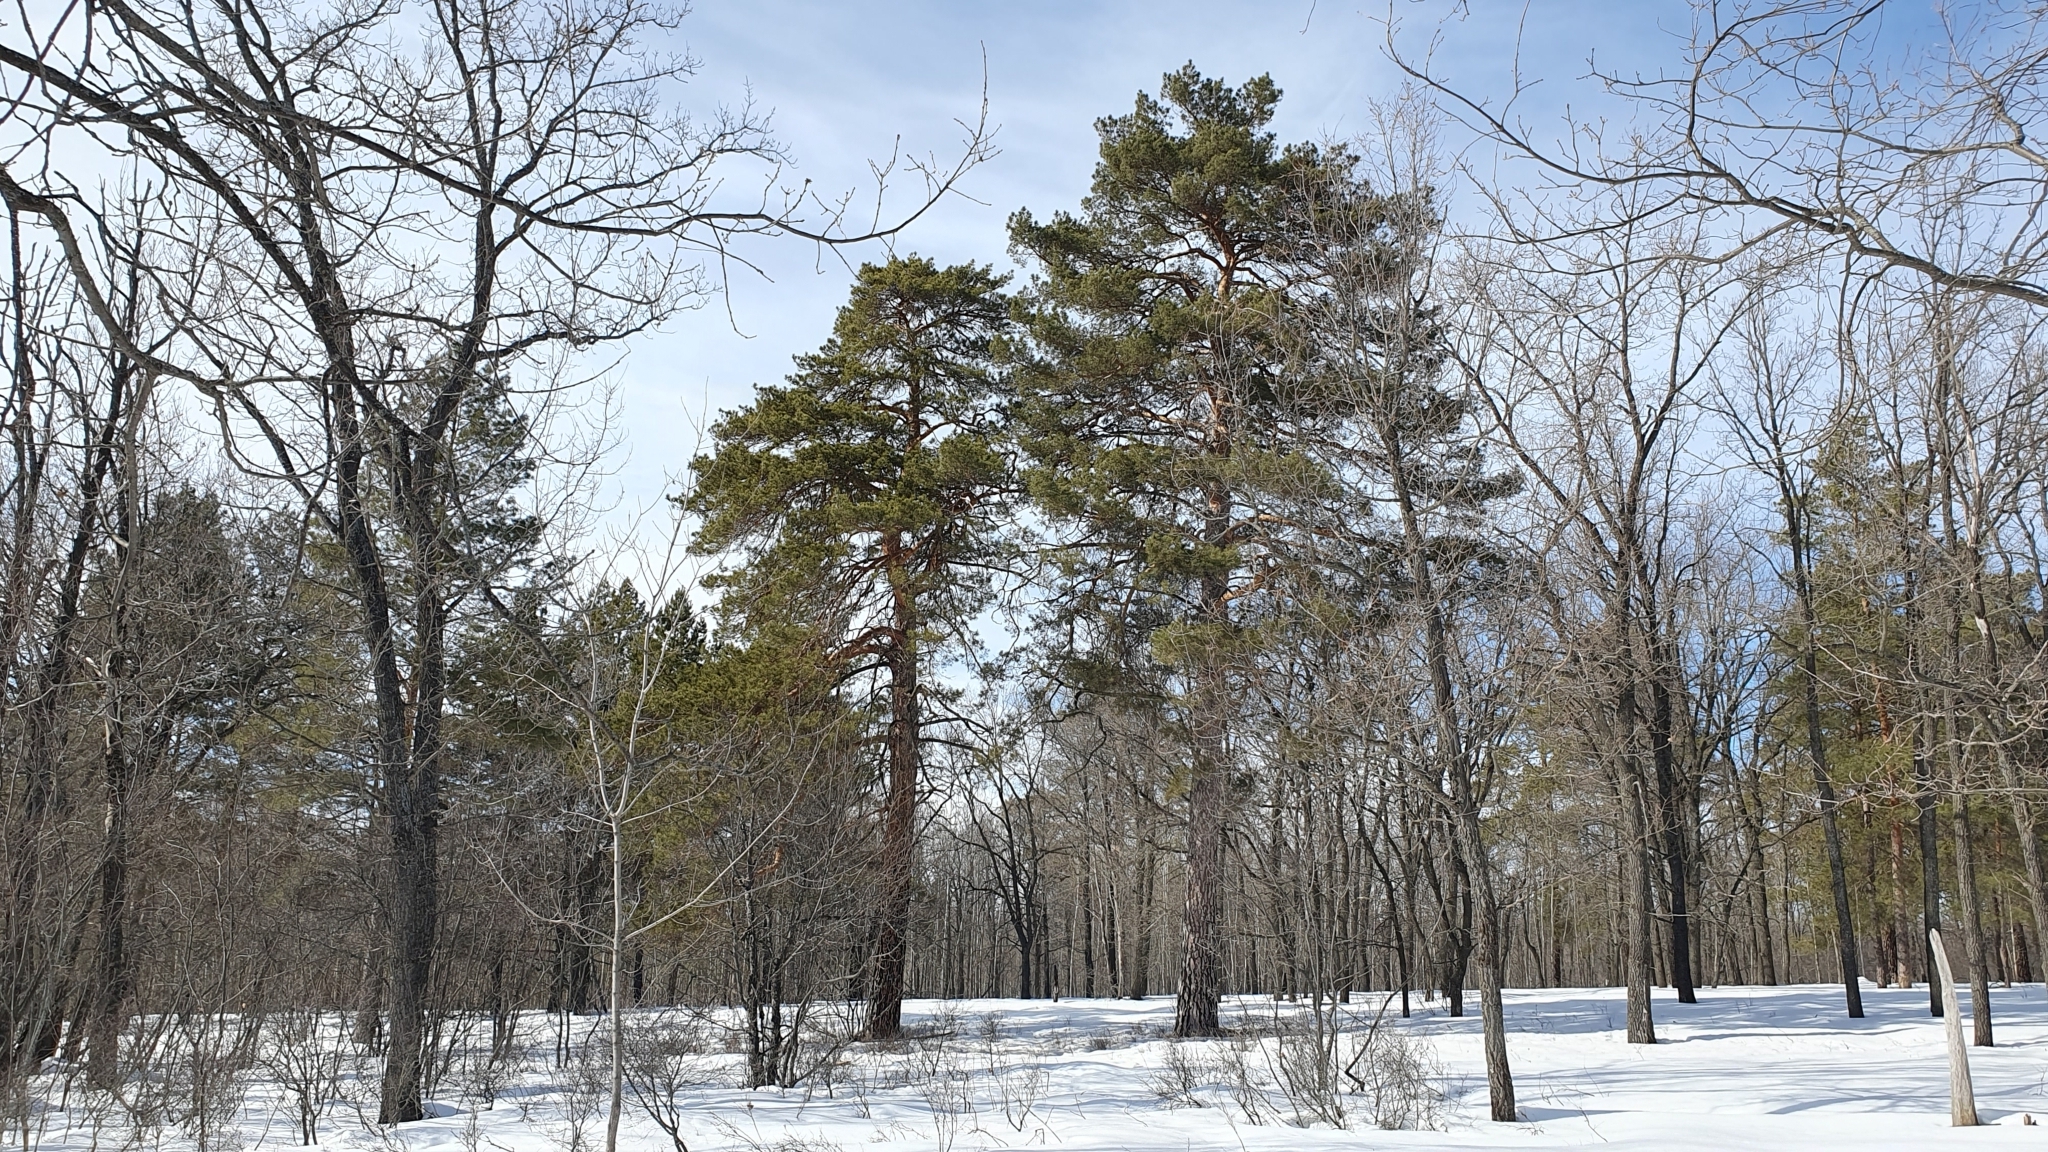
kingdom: Plantae
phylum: Tracheophyta
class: Pinopsida
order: Pinales
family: Pinaceae
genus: Pinus
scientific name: Pinus sylvestris
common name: Scots pine
